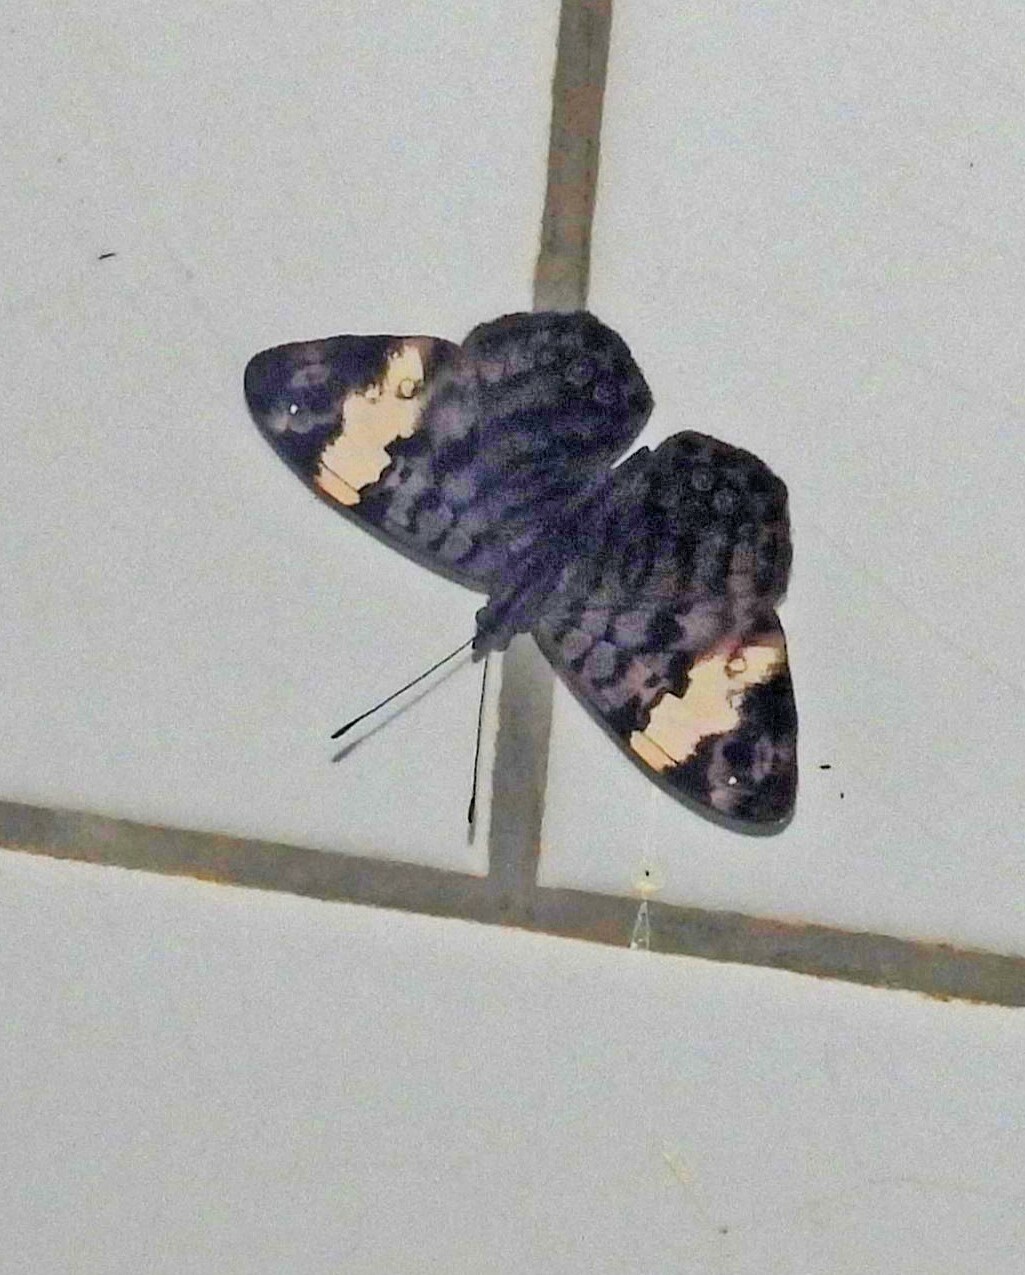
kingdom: Animalia
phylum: Arthropoda
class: Insecta
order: Lepidoptera
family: Nymphalidae
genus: Ectima
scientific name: Ectima thecla
